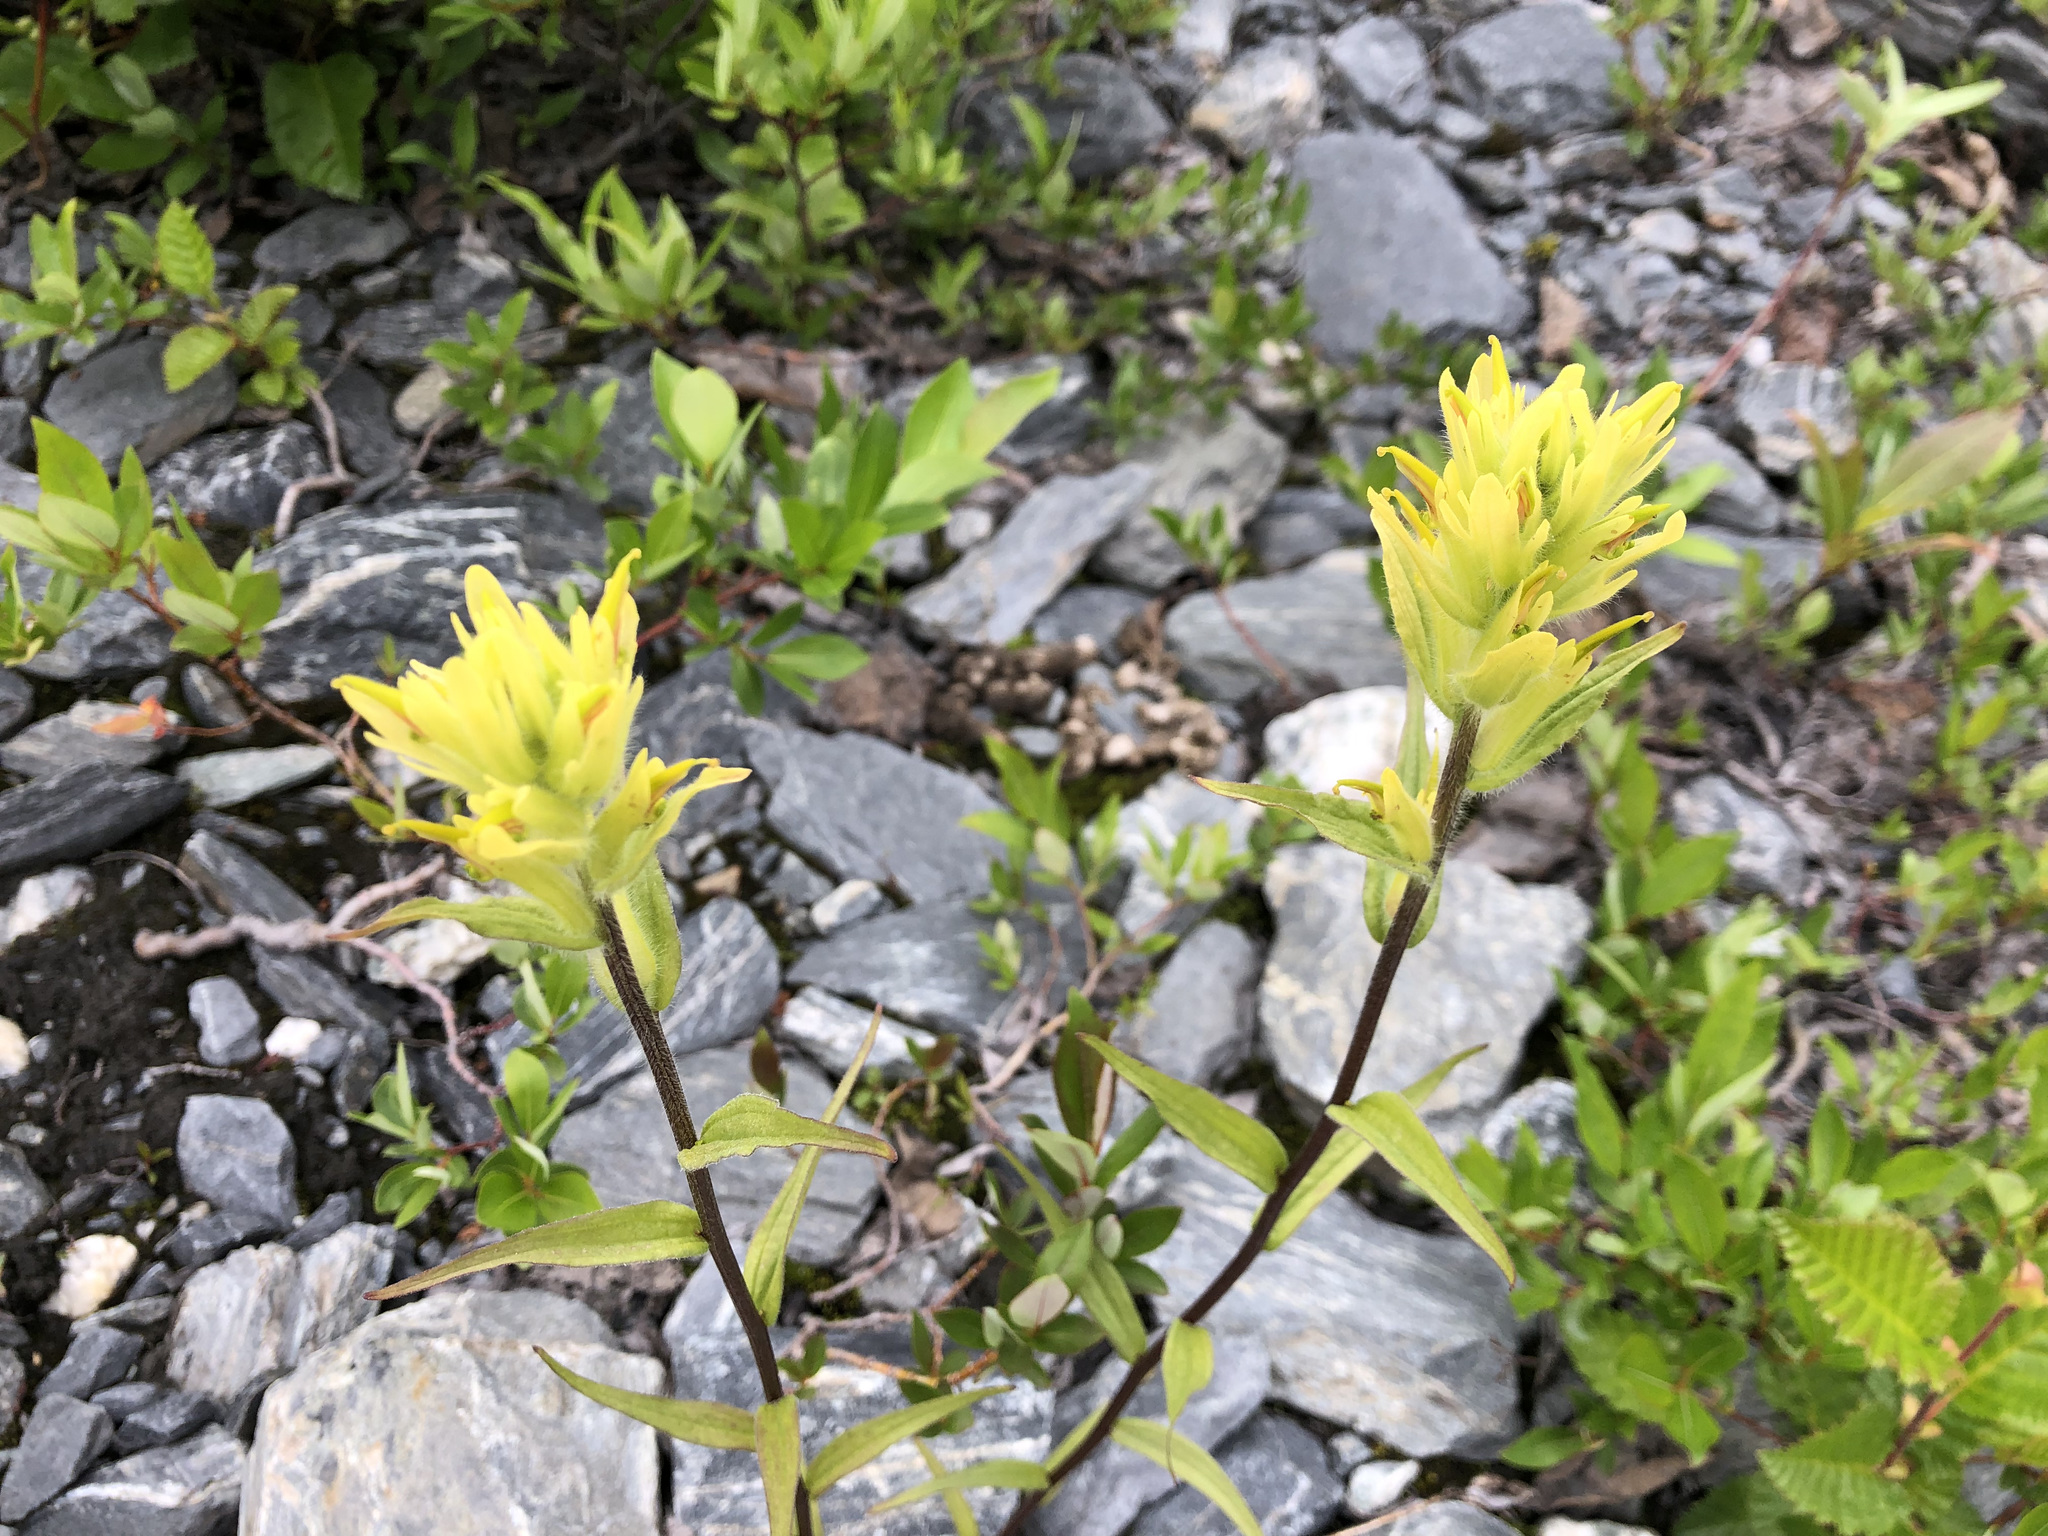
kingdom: Plantae
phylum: Tracheophyta
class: Magnoliopsida
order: Lamiales
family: Orobanchaceae
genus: Castilleja
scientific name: Castilleja unalaschcensis
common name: Unalaska paintbrush
